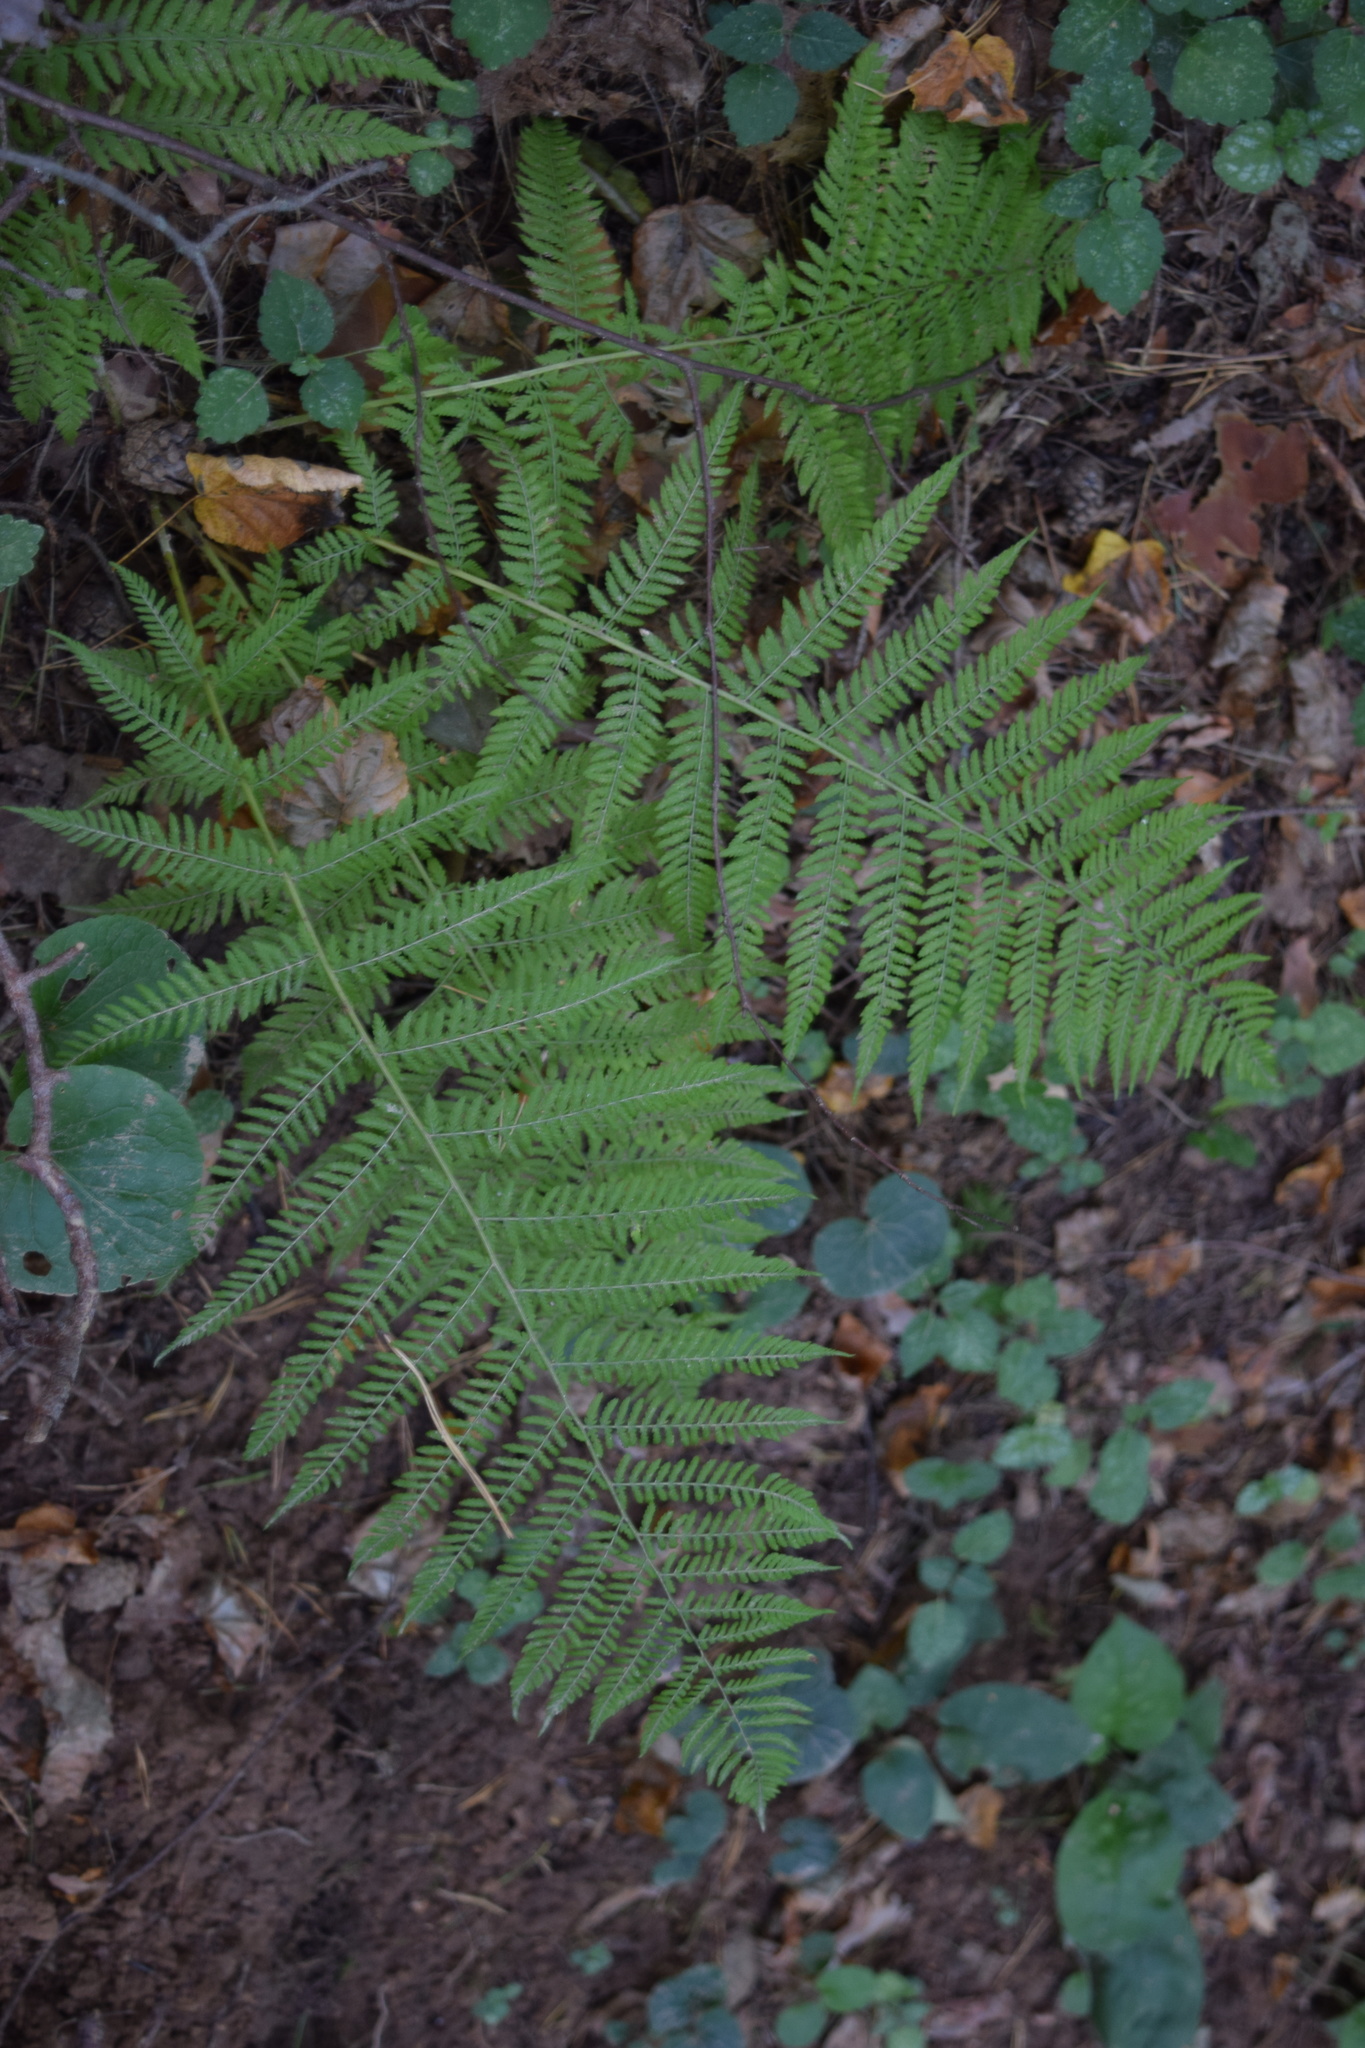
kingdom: Plantae
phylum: Tracheophyta
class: Polypodiopsida
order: Polypodiales
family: Athyriaceae
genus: Athyrium
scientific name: Athyrium filix-femina
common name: Lady fern
